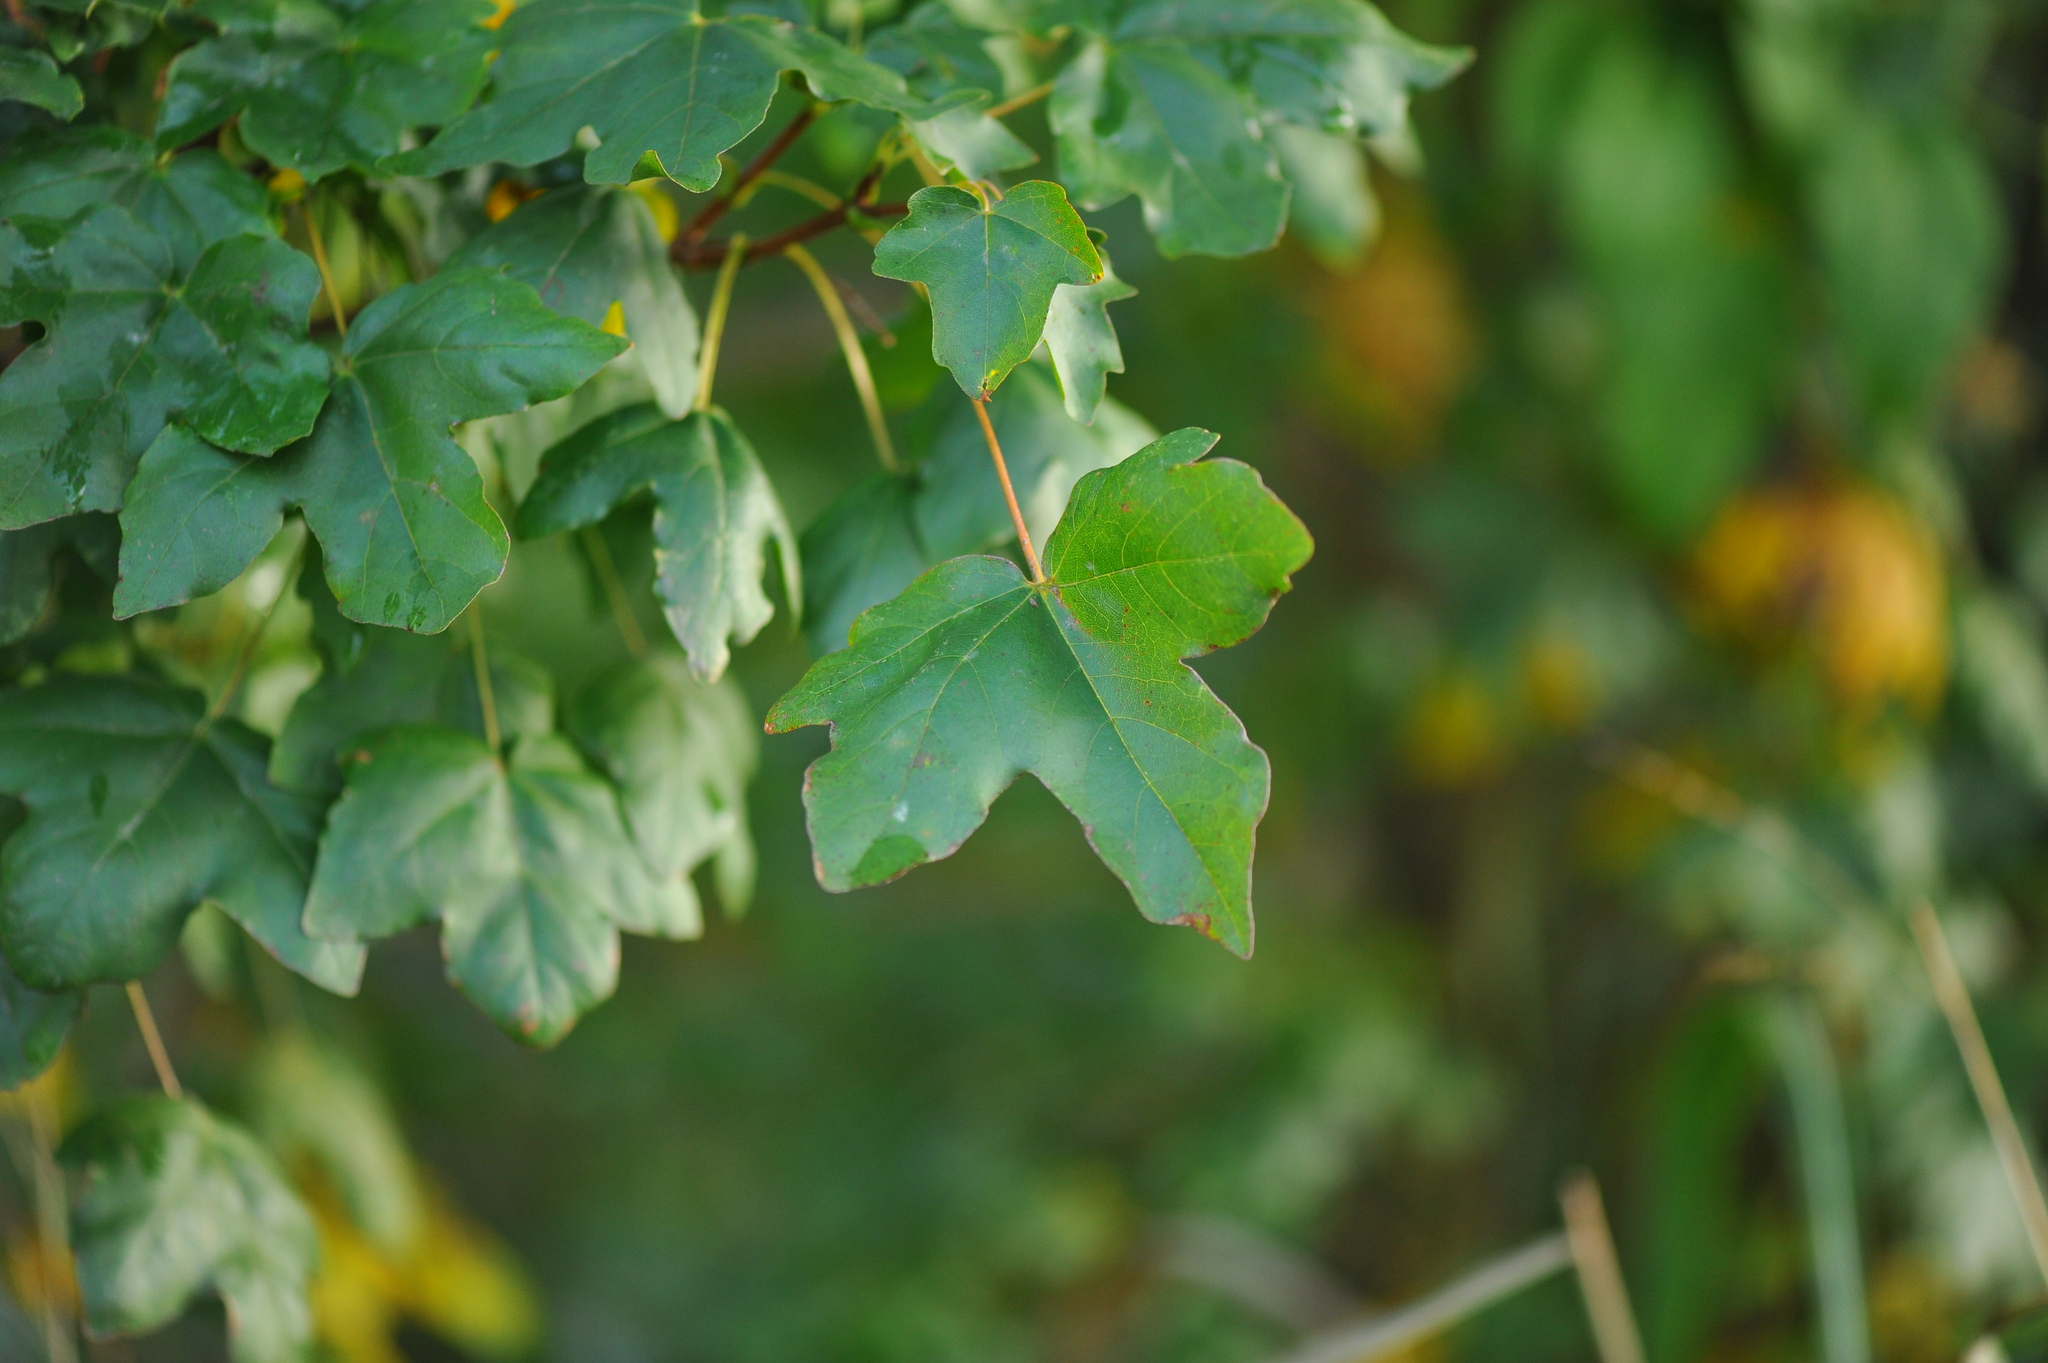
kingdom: Plantae
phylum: Tracheophyta
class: Magnoliopsida
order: Sapindales
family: Sapindaceae
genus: Acer
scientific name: Acer campestre
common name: Field maple
